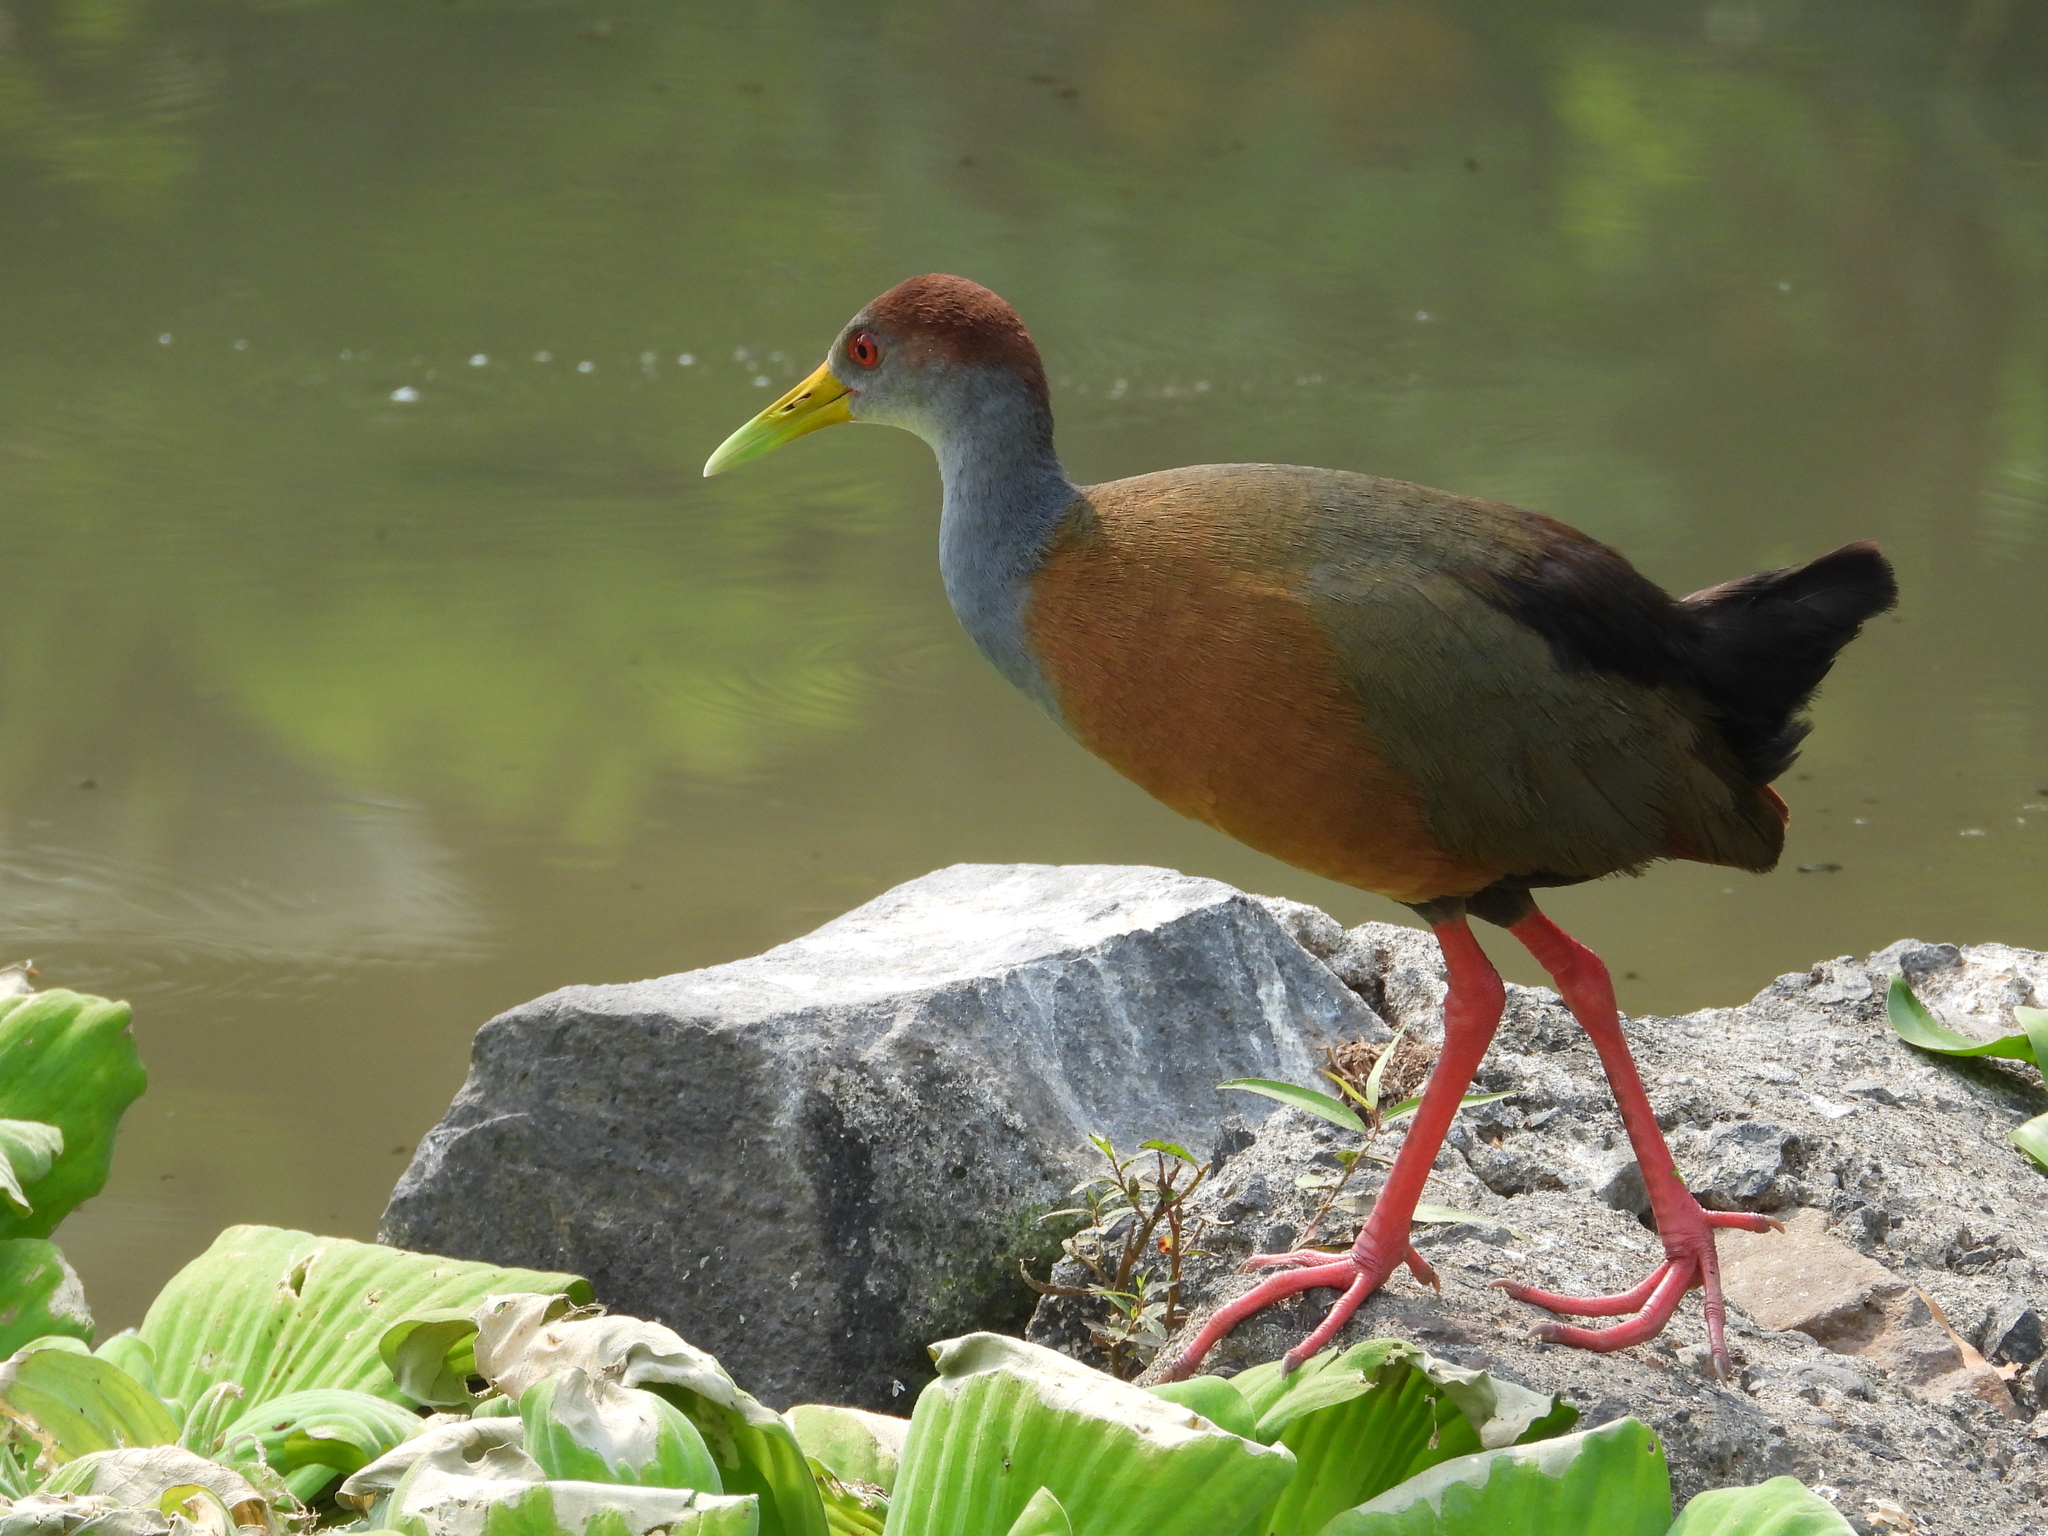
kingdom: Animalia
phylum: Chordata
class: Aves
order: Gruiformes
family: Rallidae
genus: Aramides
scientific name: Aramides albiventris
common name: Russet-naped wood-rail
